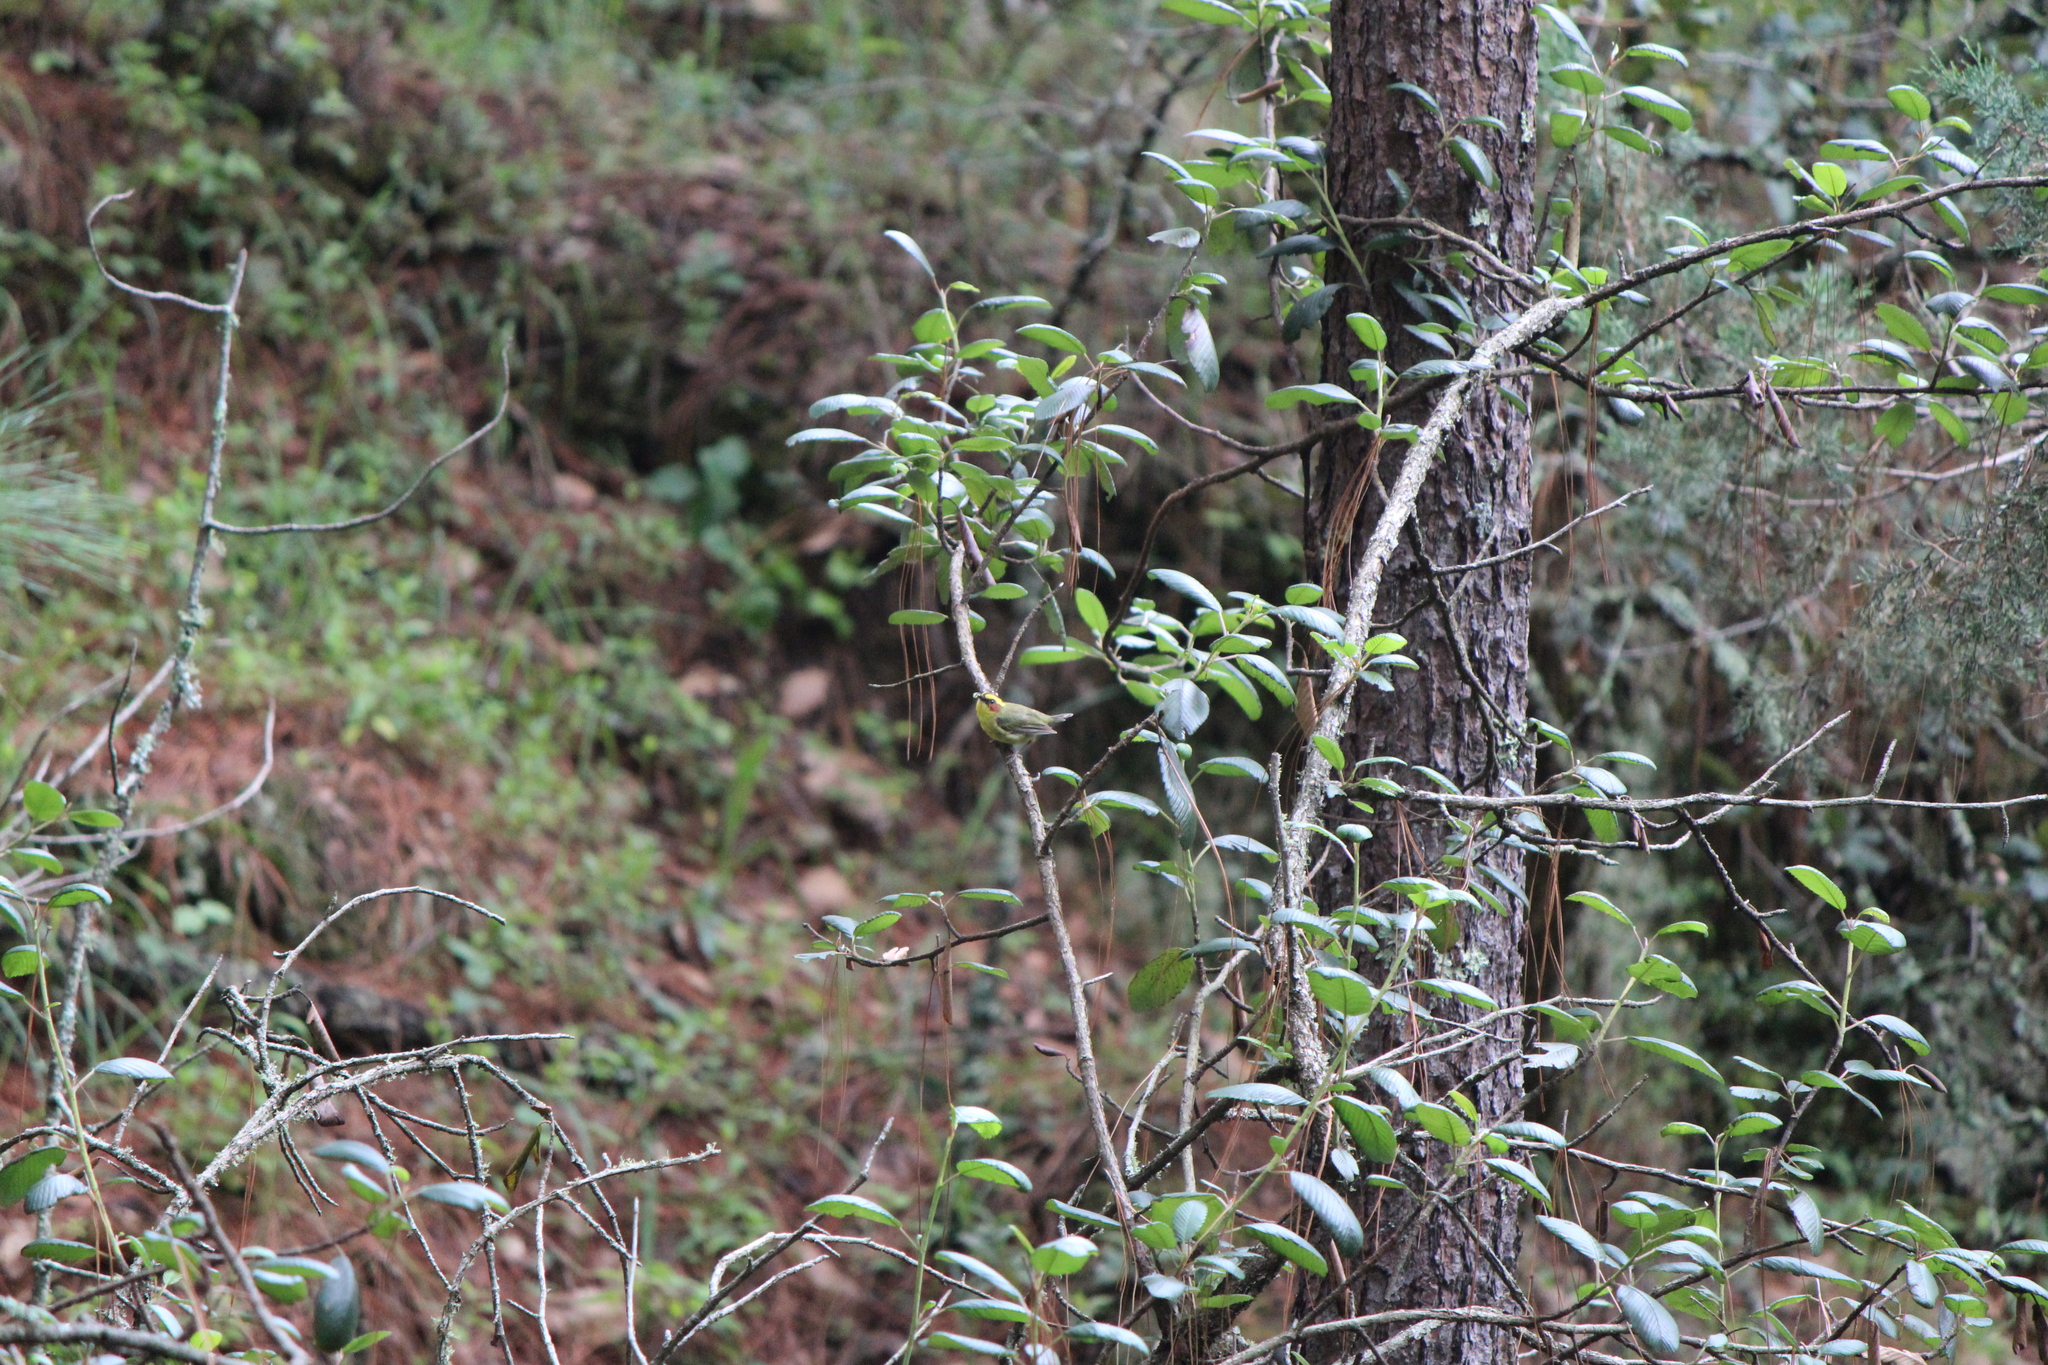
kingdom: Animalia
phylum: Chordata
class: Aves
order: Passeriformes
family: Parulidae
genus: Basileuterus
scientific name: Basileuterus belli
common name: Golden-browed warbler
